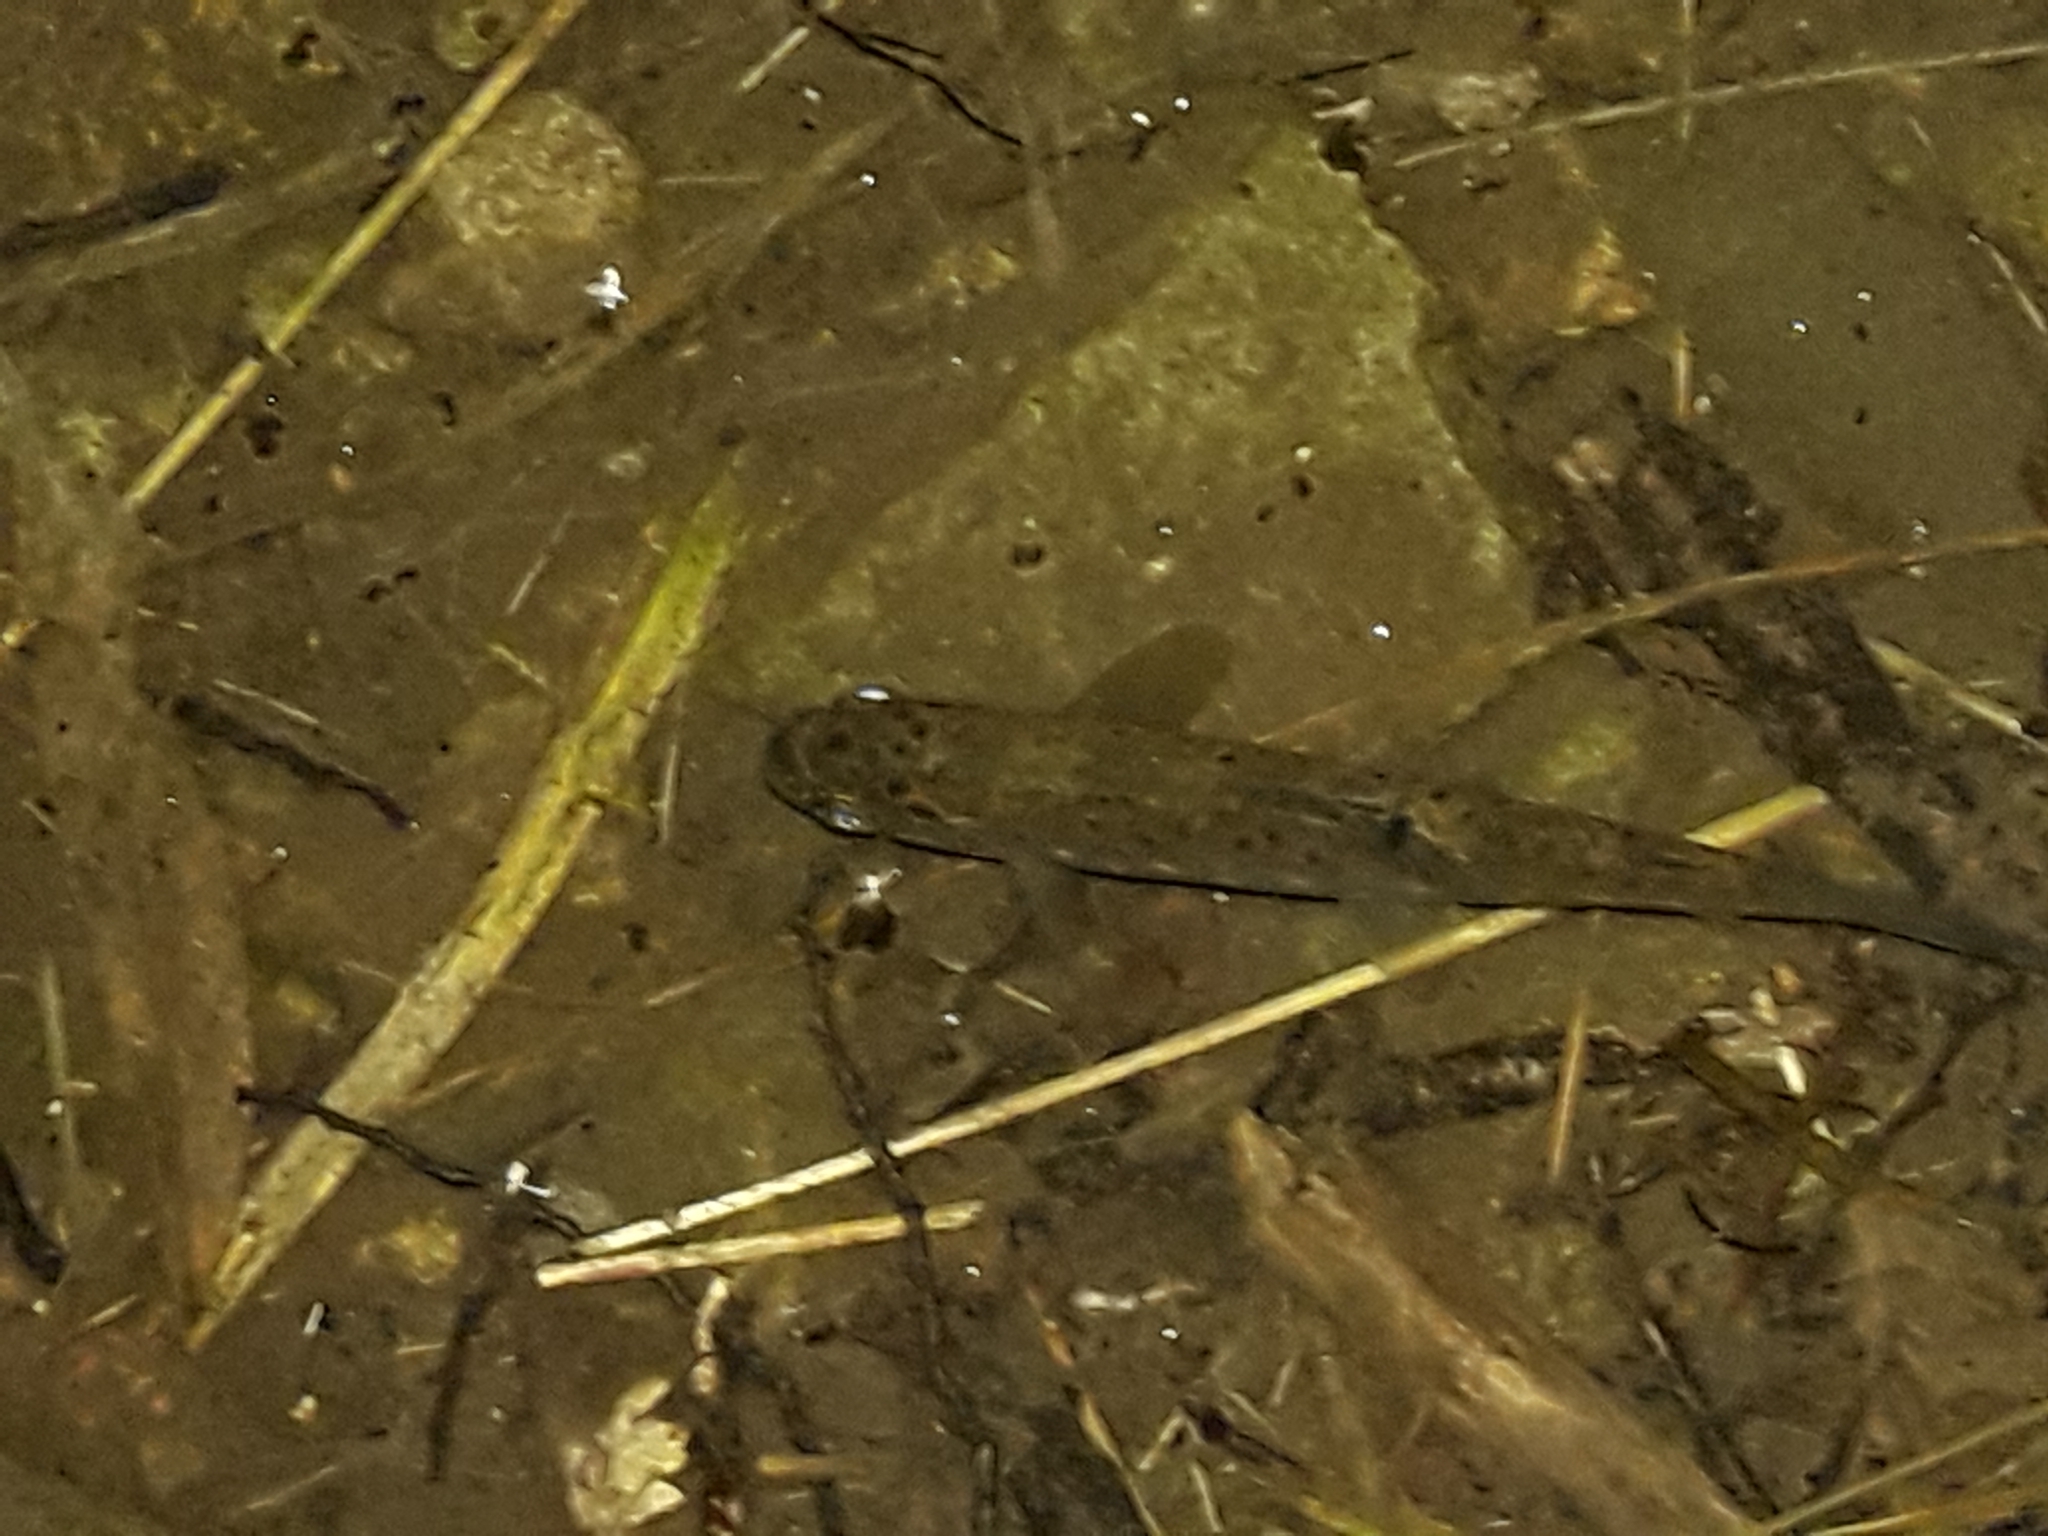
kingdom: Animalia
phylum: Chordata
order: Salmoniformes
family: Salmonidae
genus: Salmo
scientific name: Salmo trutta
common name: Brown trout
